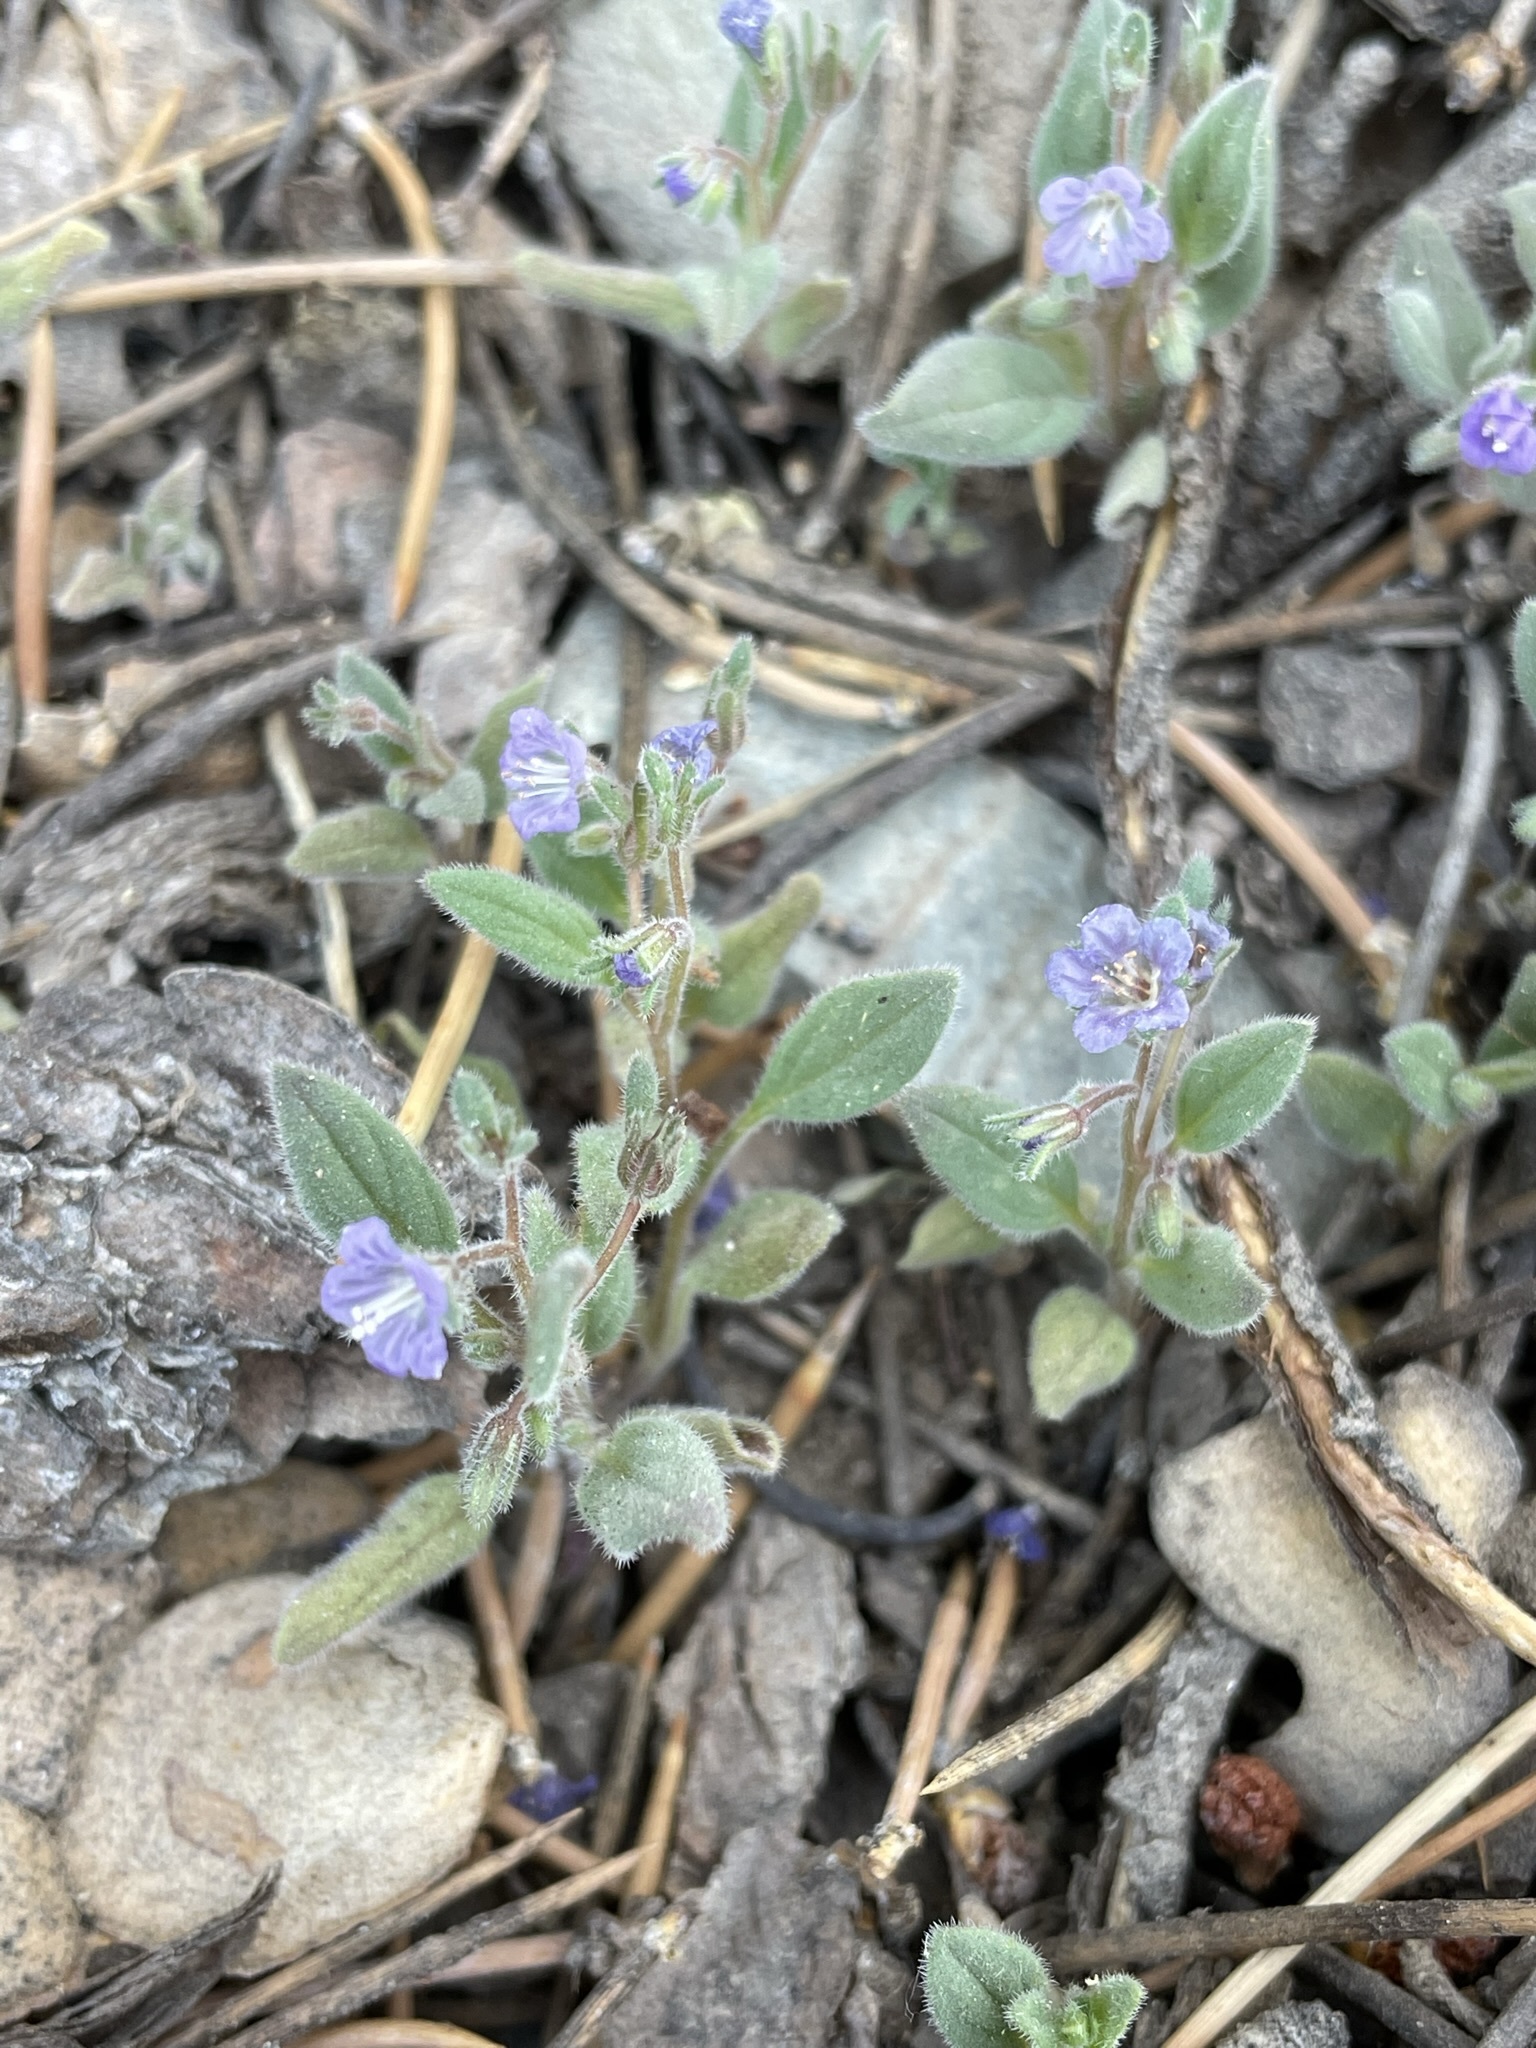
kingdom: Plantae
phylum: Tracheophyta
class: Magnoliopsida
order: Boraginales
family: Hydrophyllaceae
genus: Phacelia
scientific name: Phacelia austromontana
